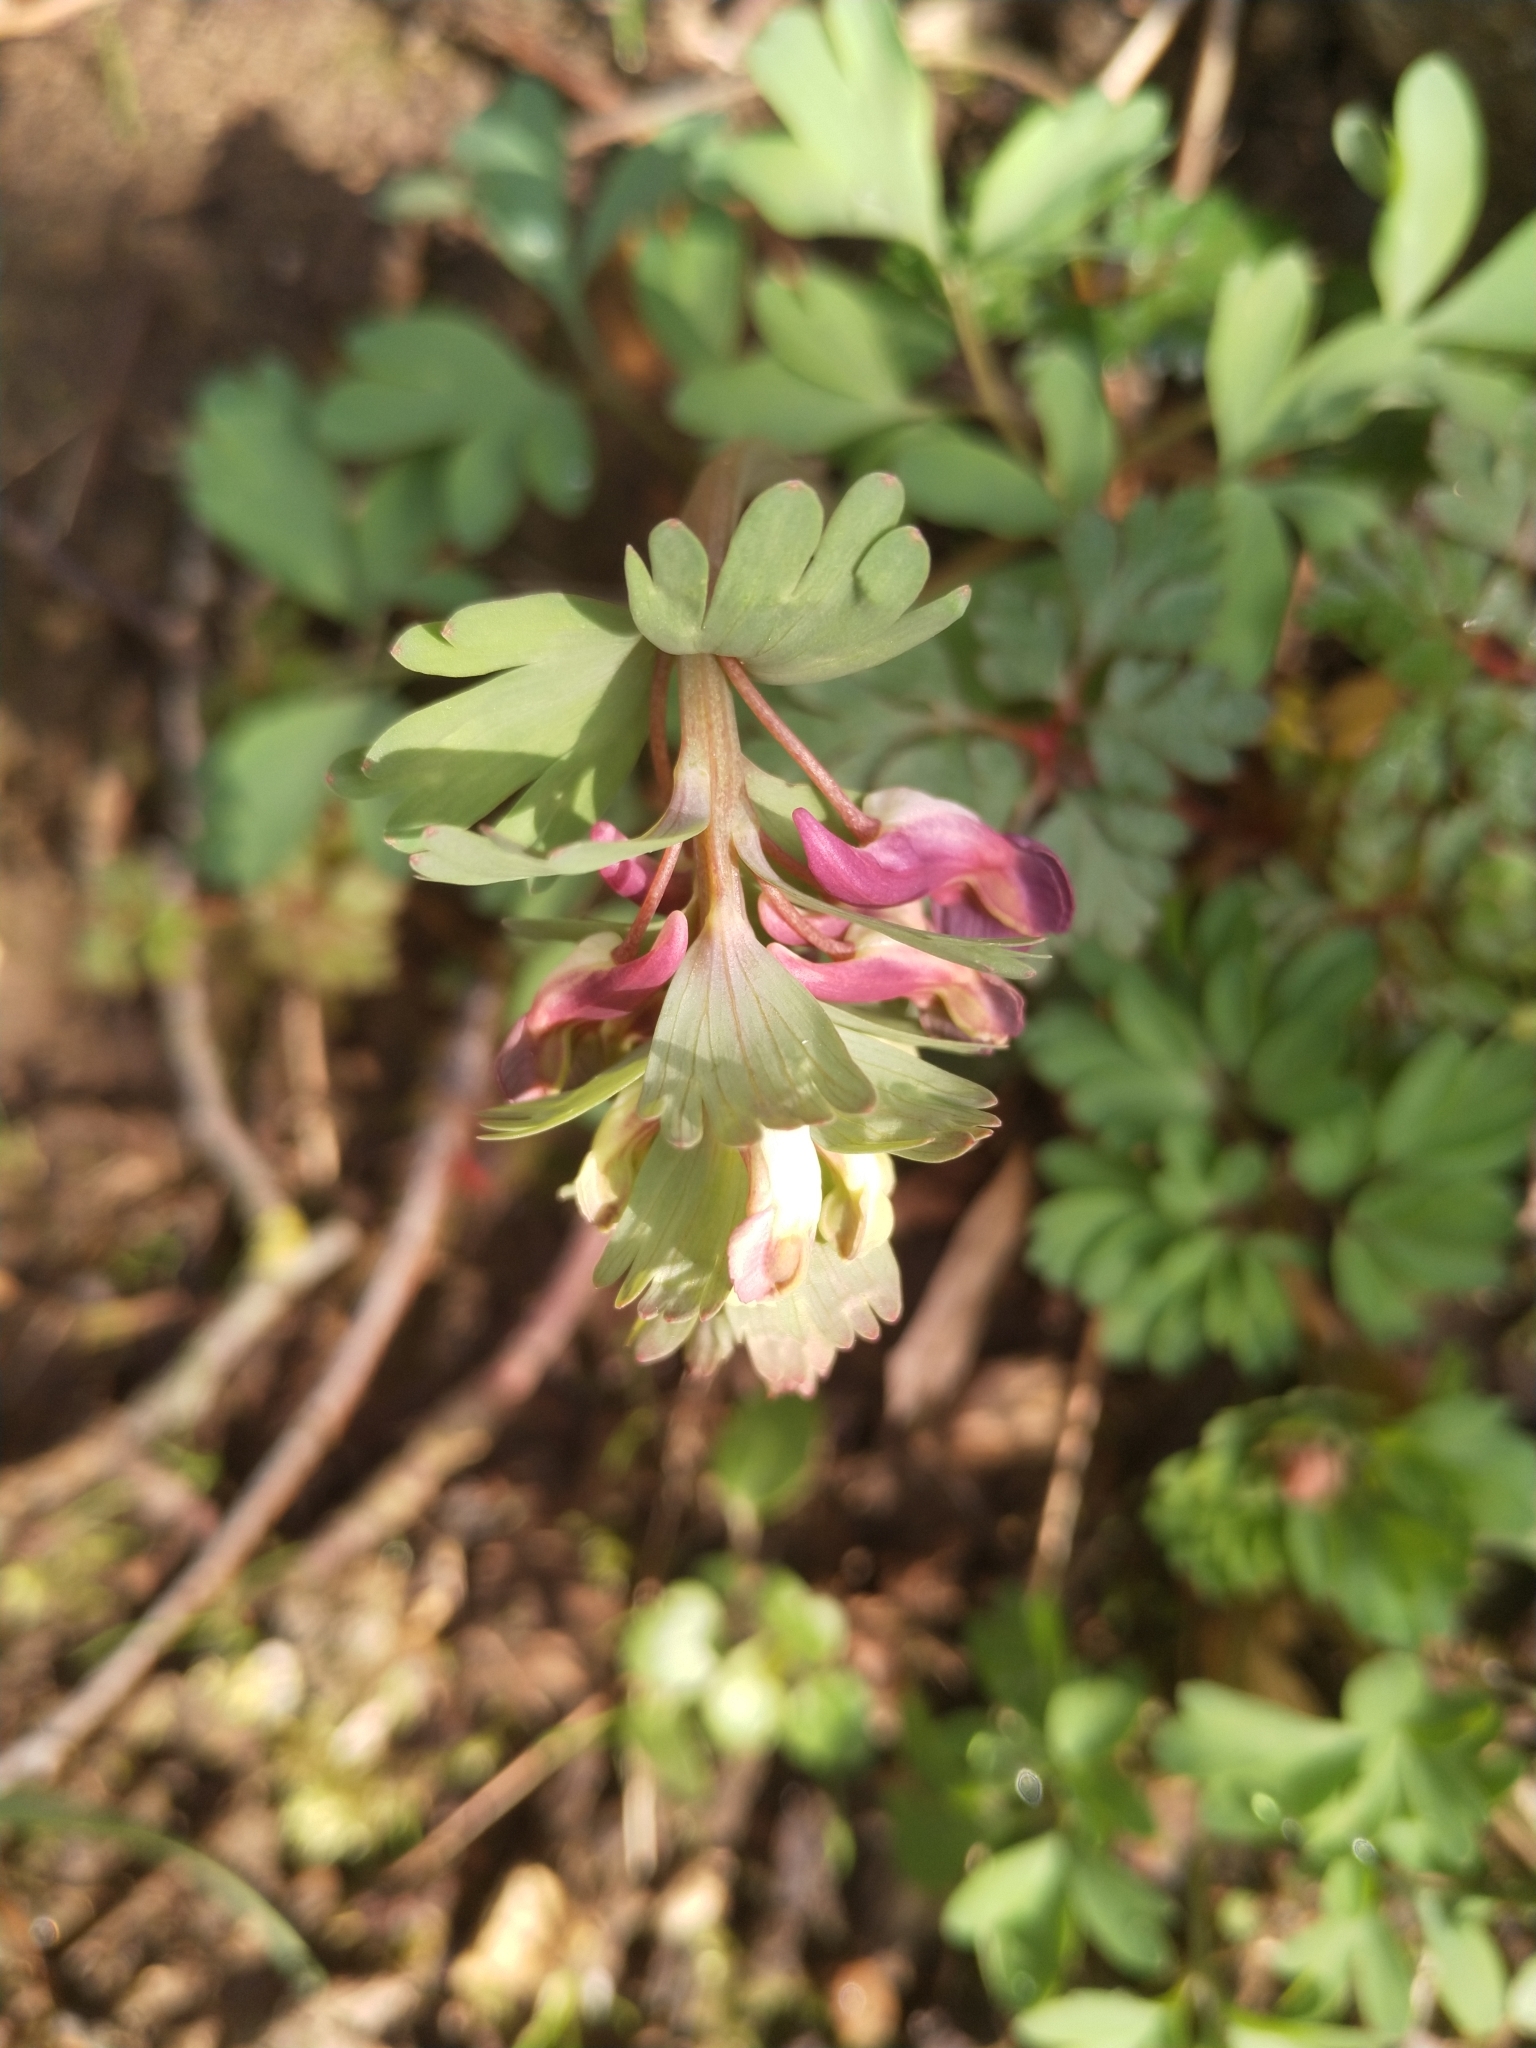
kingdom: Plantae
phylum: Tracheophyta
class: Magnoliopsida
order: Ranunculales
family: Papaveraceae
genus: Corydalis
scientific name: Corydalis solida
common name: Bird-in-a-bush
